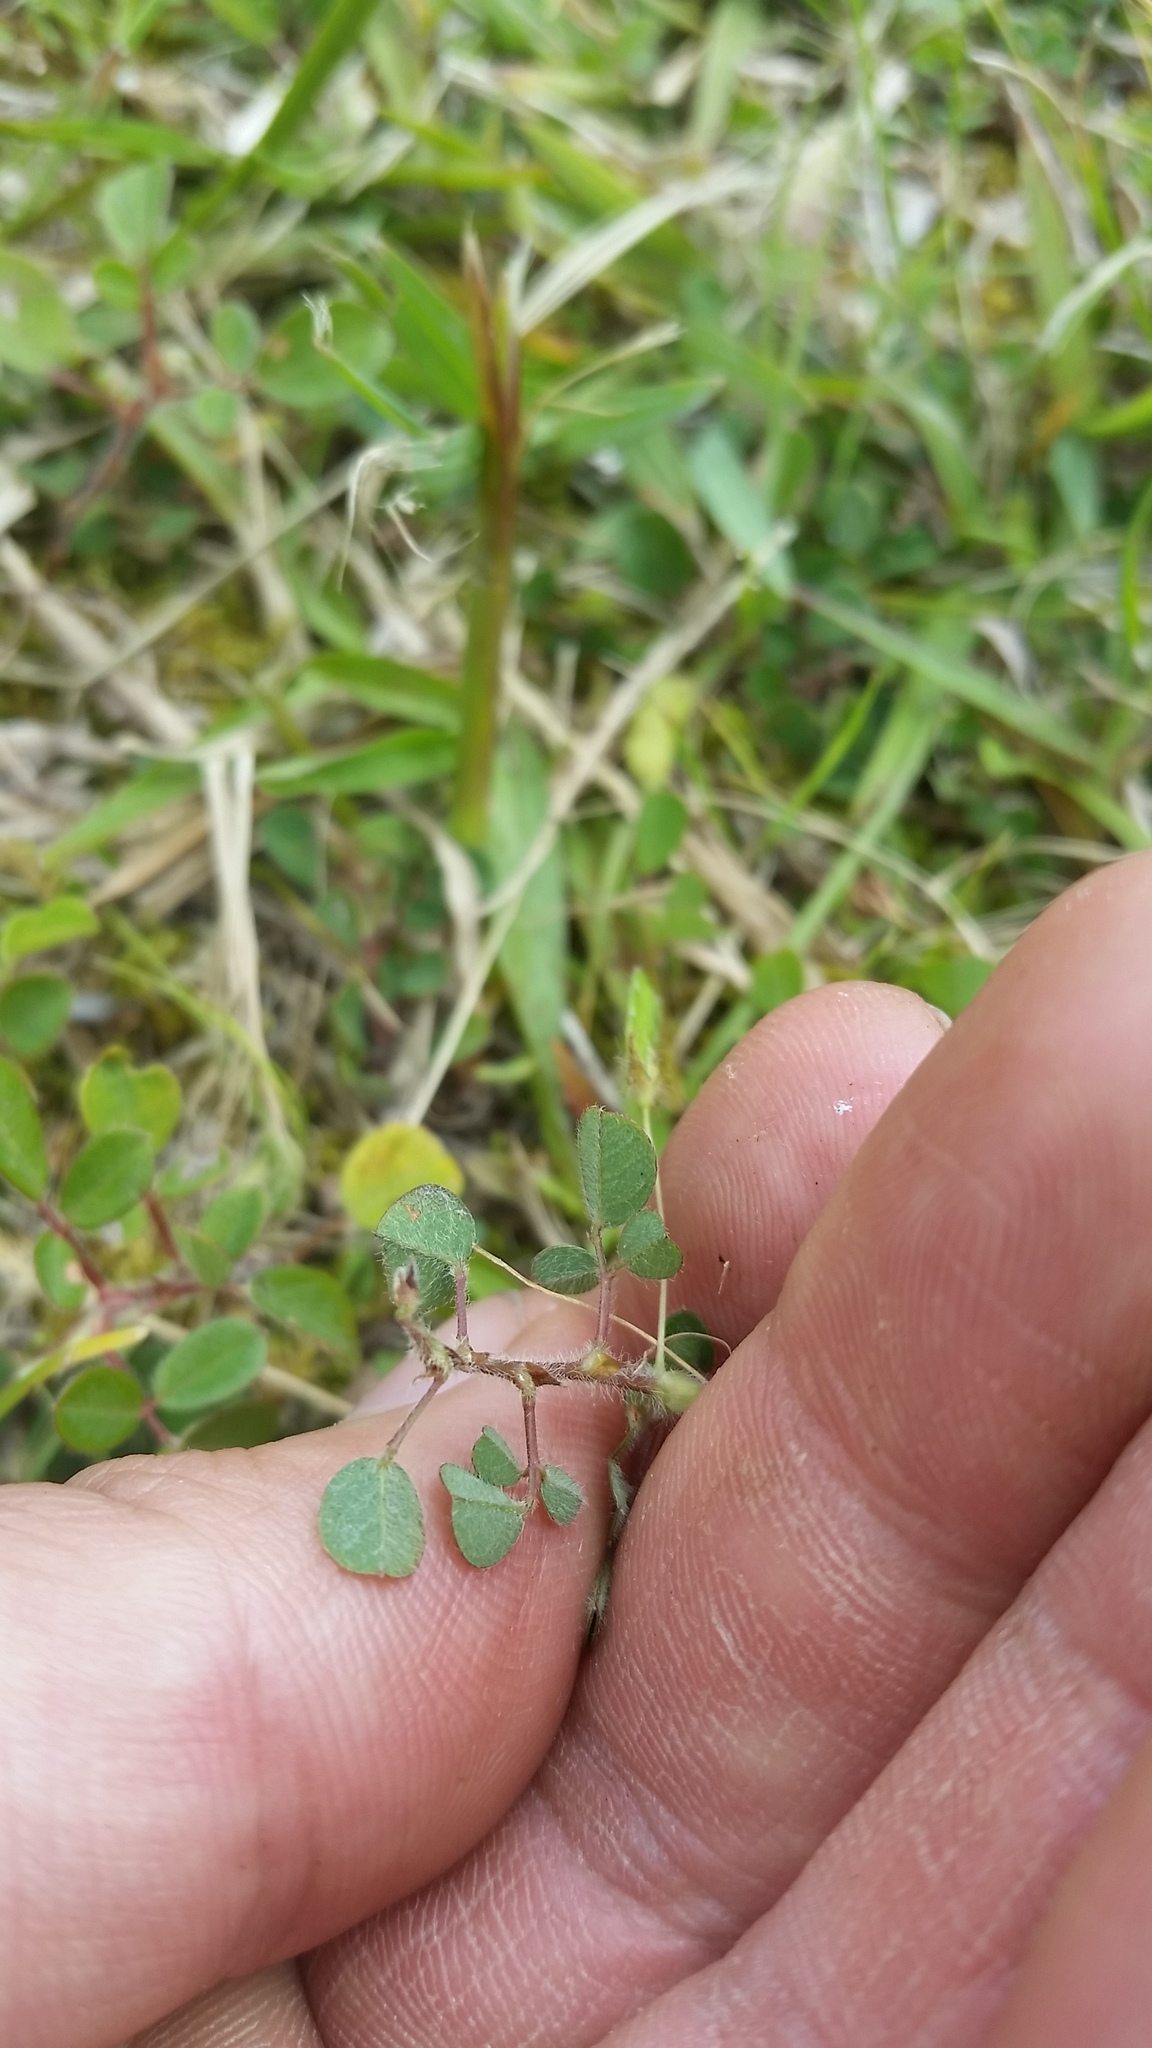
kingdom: Plantae
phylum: Tracheophyta
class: Magnoliopsida
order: Fabales
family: Fabaceae
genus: Grona
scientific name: Grona triflora
